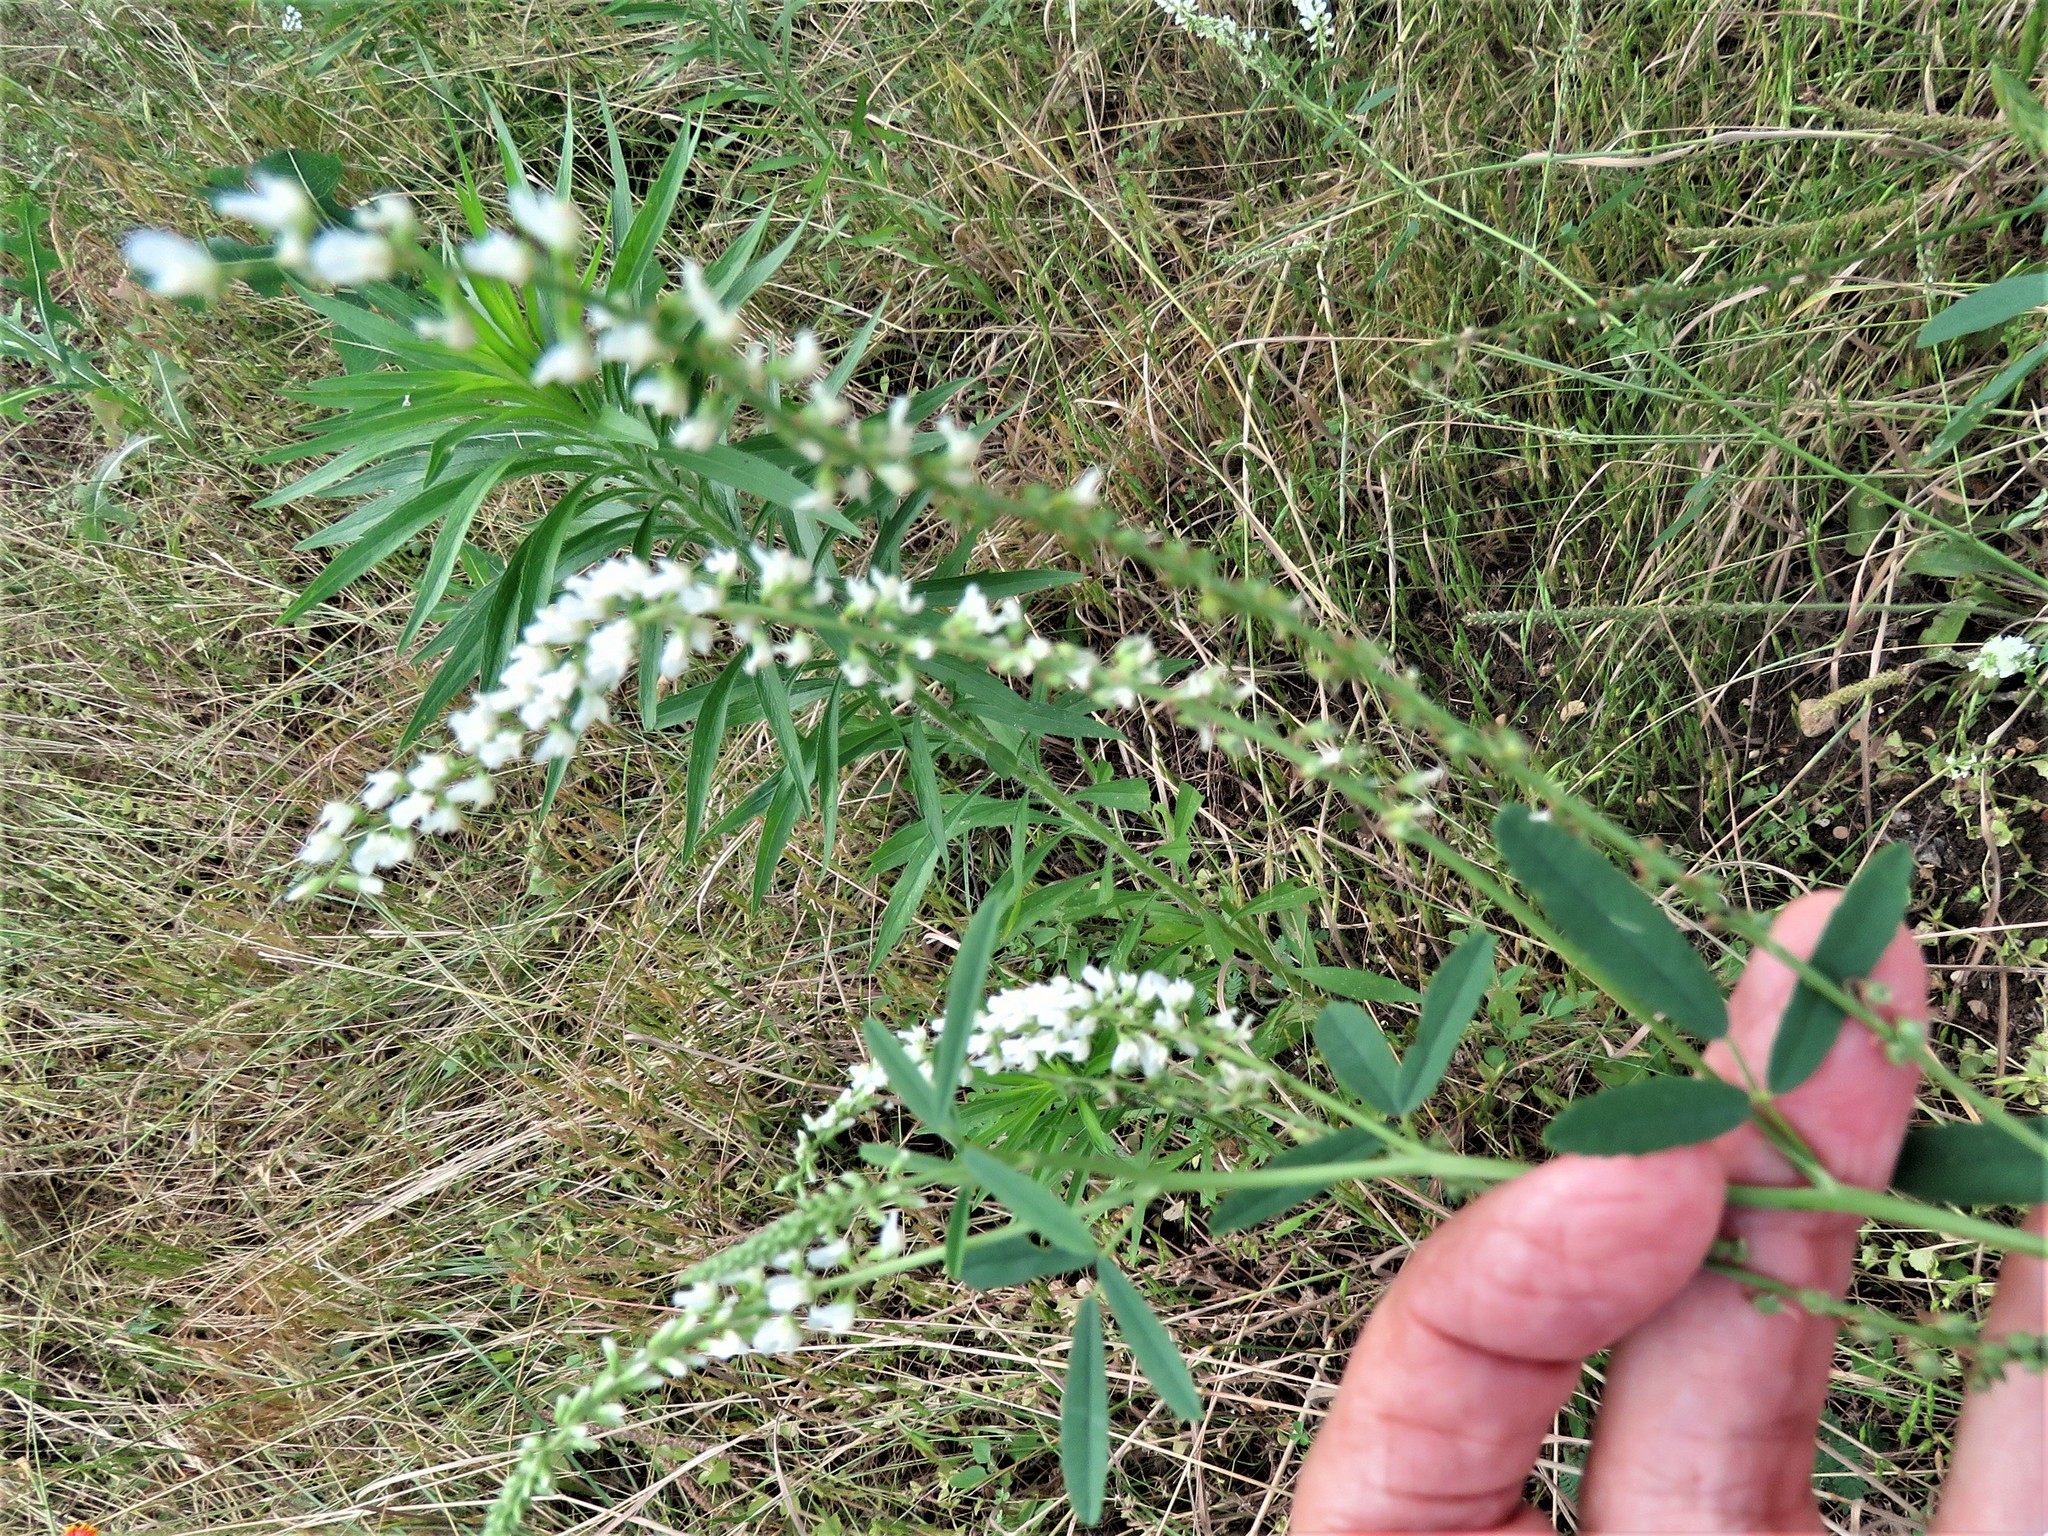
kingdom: Plantae
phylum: Tracheophyta
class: Magnoliopsida
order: Fabales
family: Fabaceae
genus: Melilotus
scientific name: Melilotus albus
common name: White melilot
